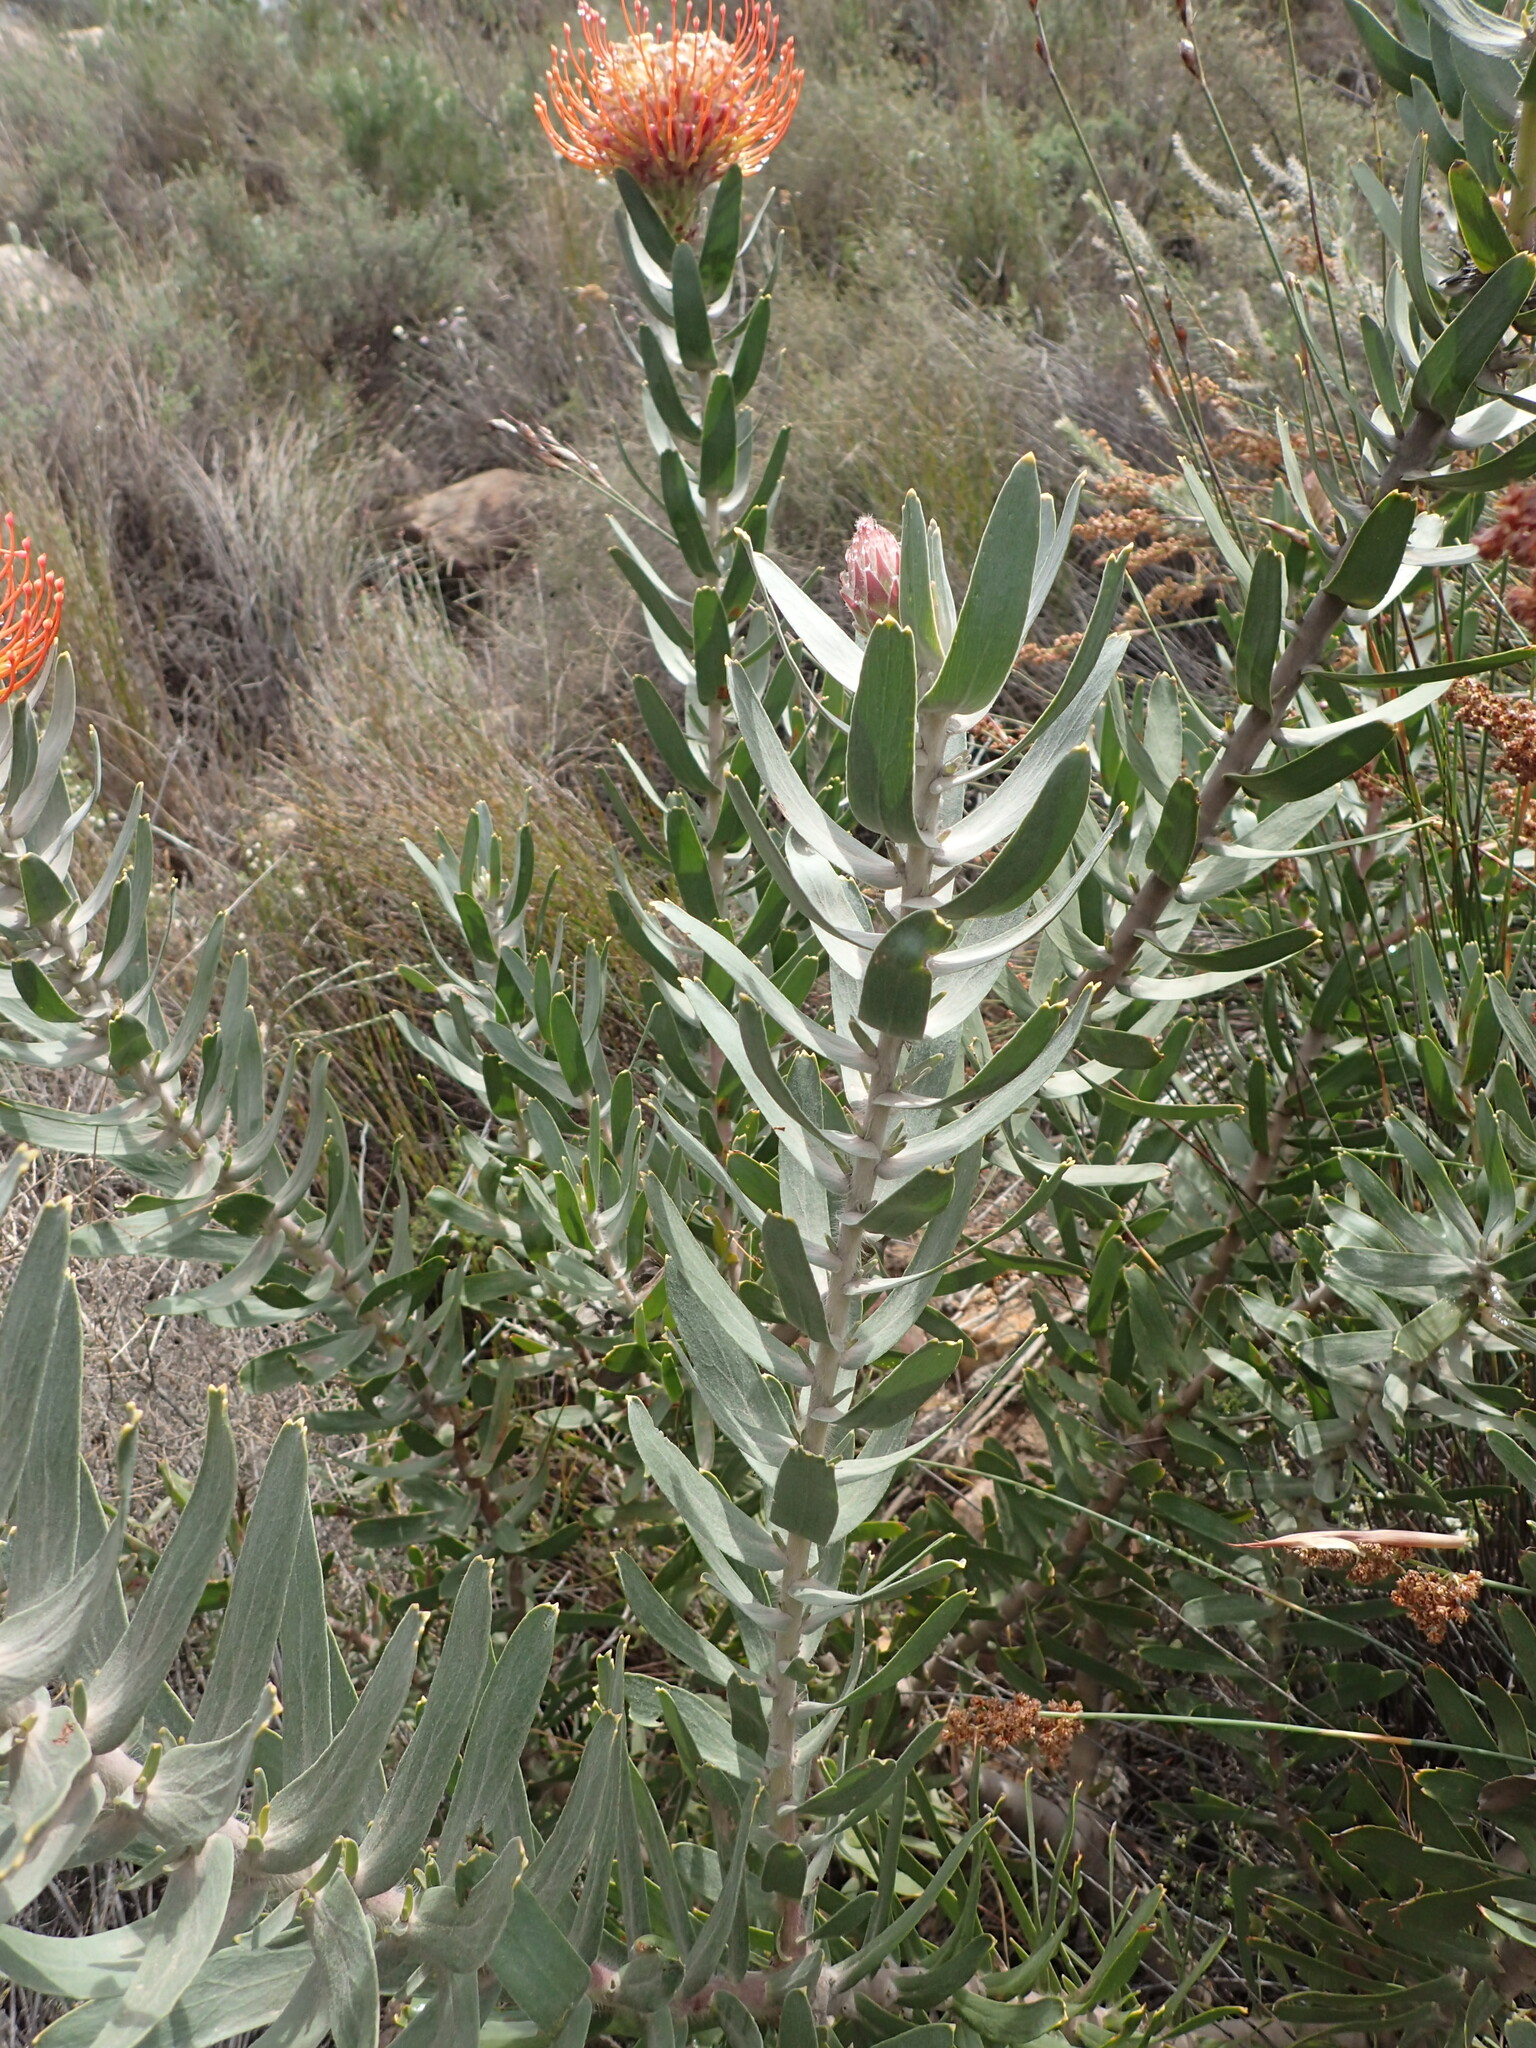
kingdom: Plantae
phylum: Tracheophyta
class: Magnoliopsida
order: Proteales
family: Proteaceae
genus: Leucospermum
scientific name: Leucospermum vestitum
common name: Silky-hair pincushion
